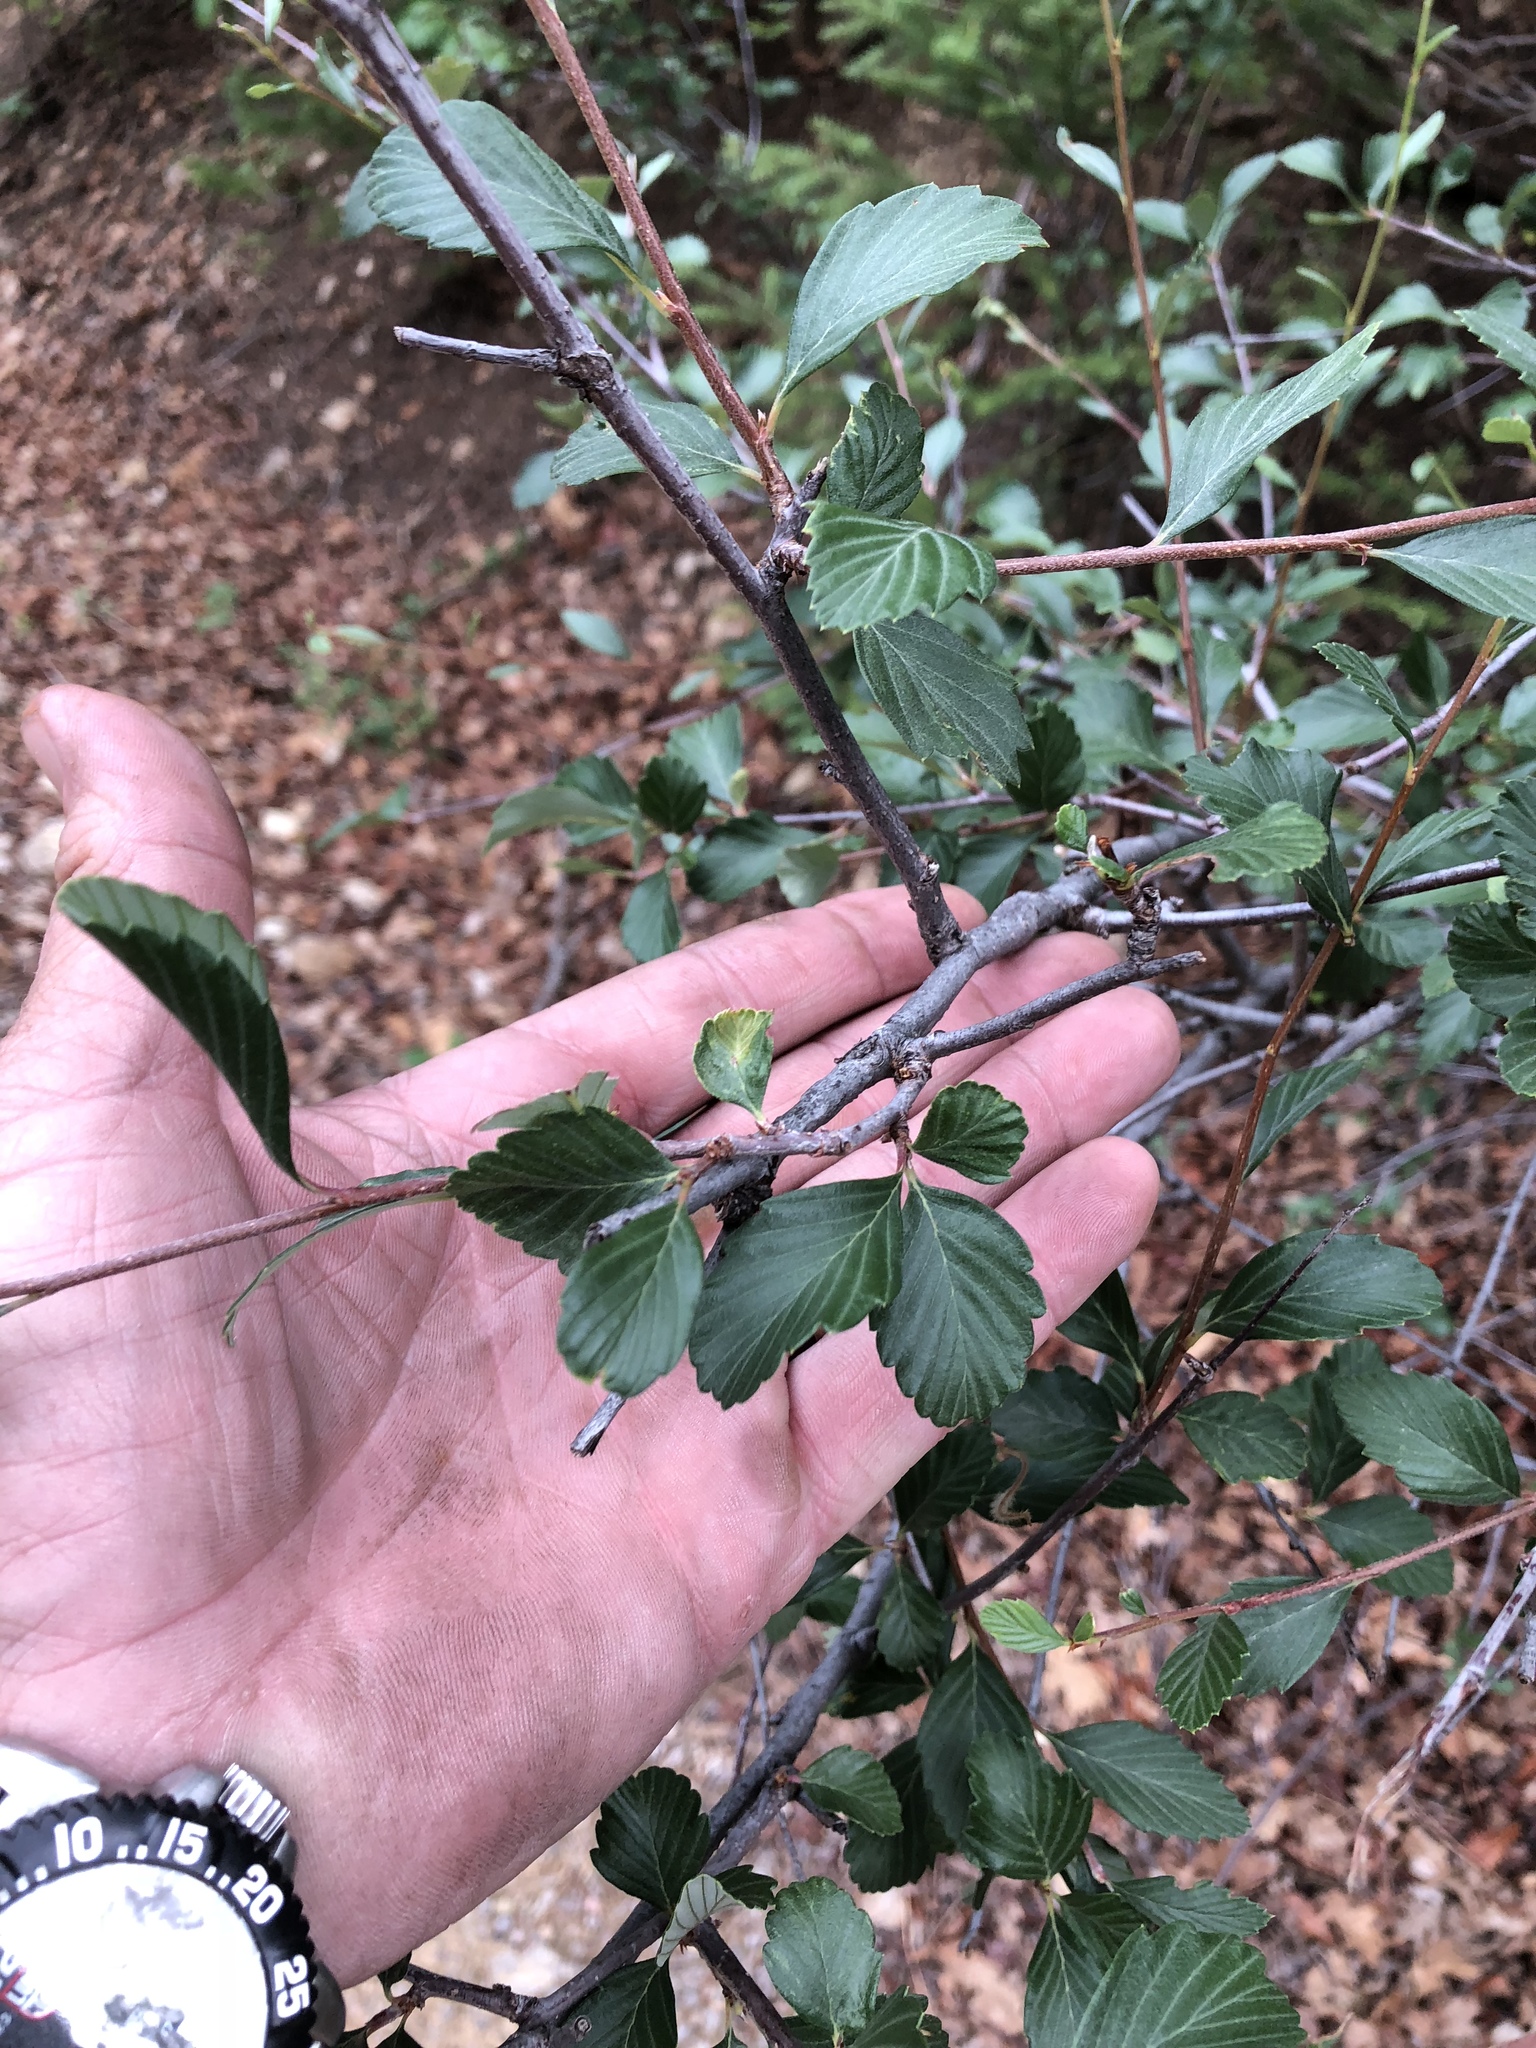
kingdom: Plantae
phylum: Tracheophyta
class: Magnoliopsida
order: Rosales
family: Rosaceae
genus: Cercocarpus
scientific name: Cercocarpus montanus
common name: Alder-leaf cercocarpus
